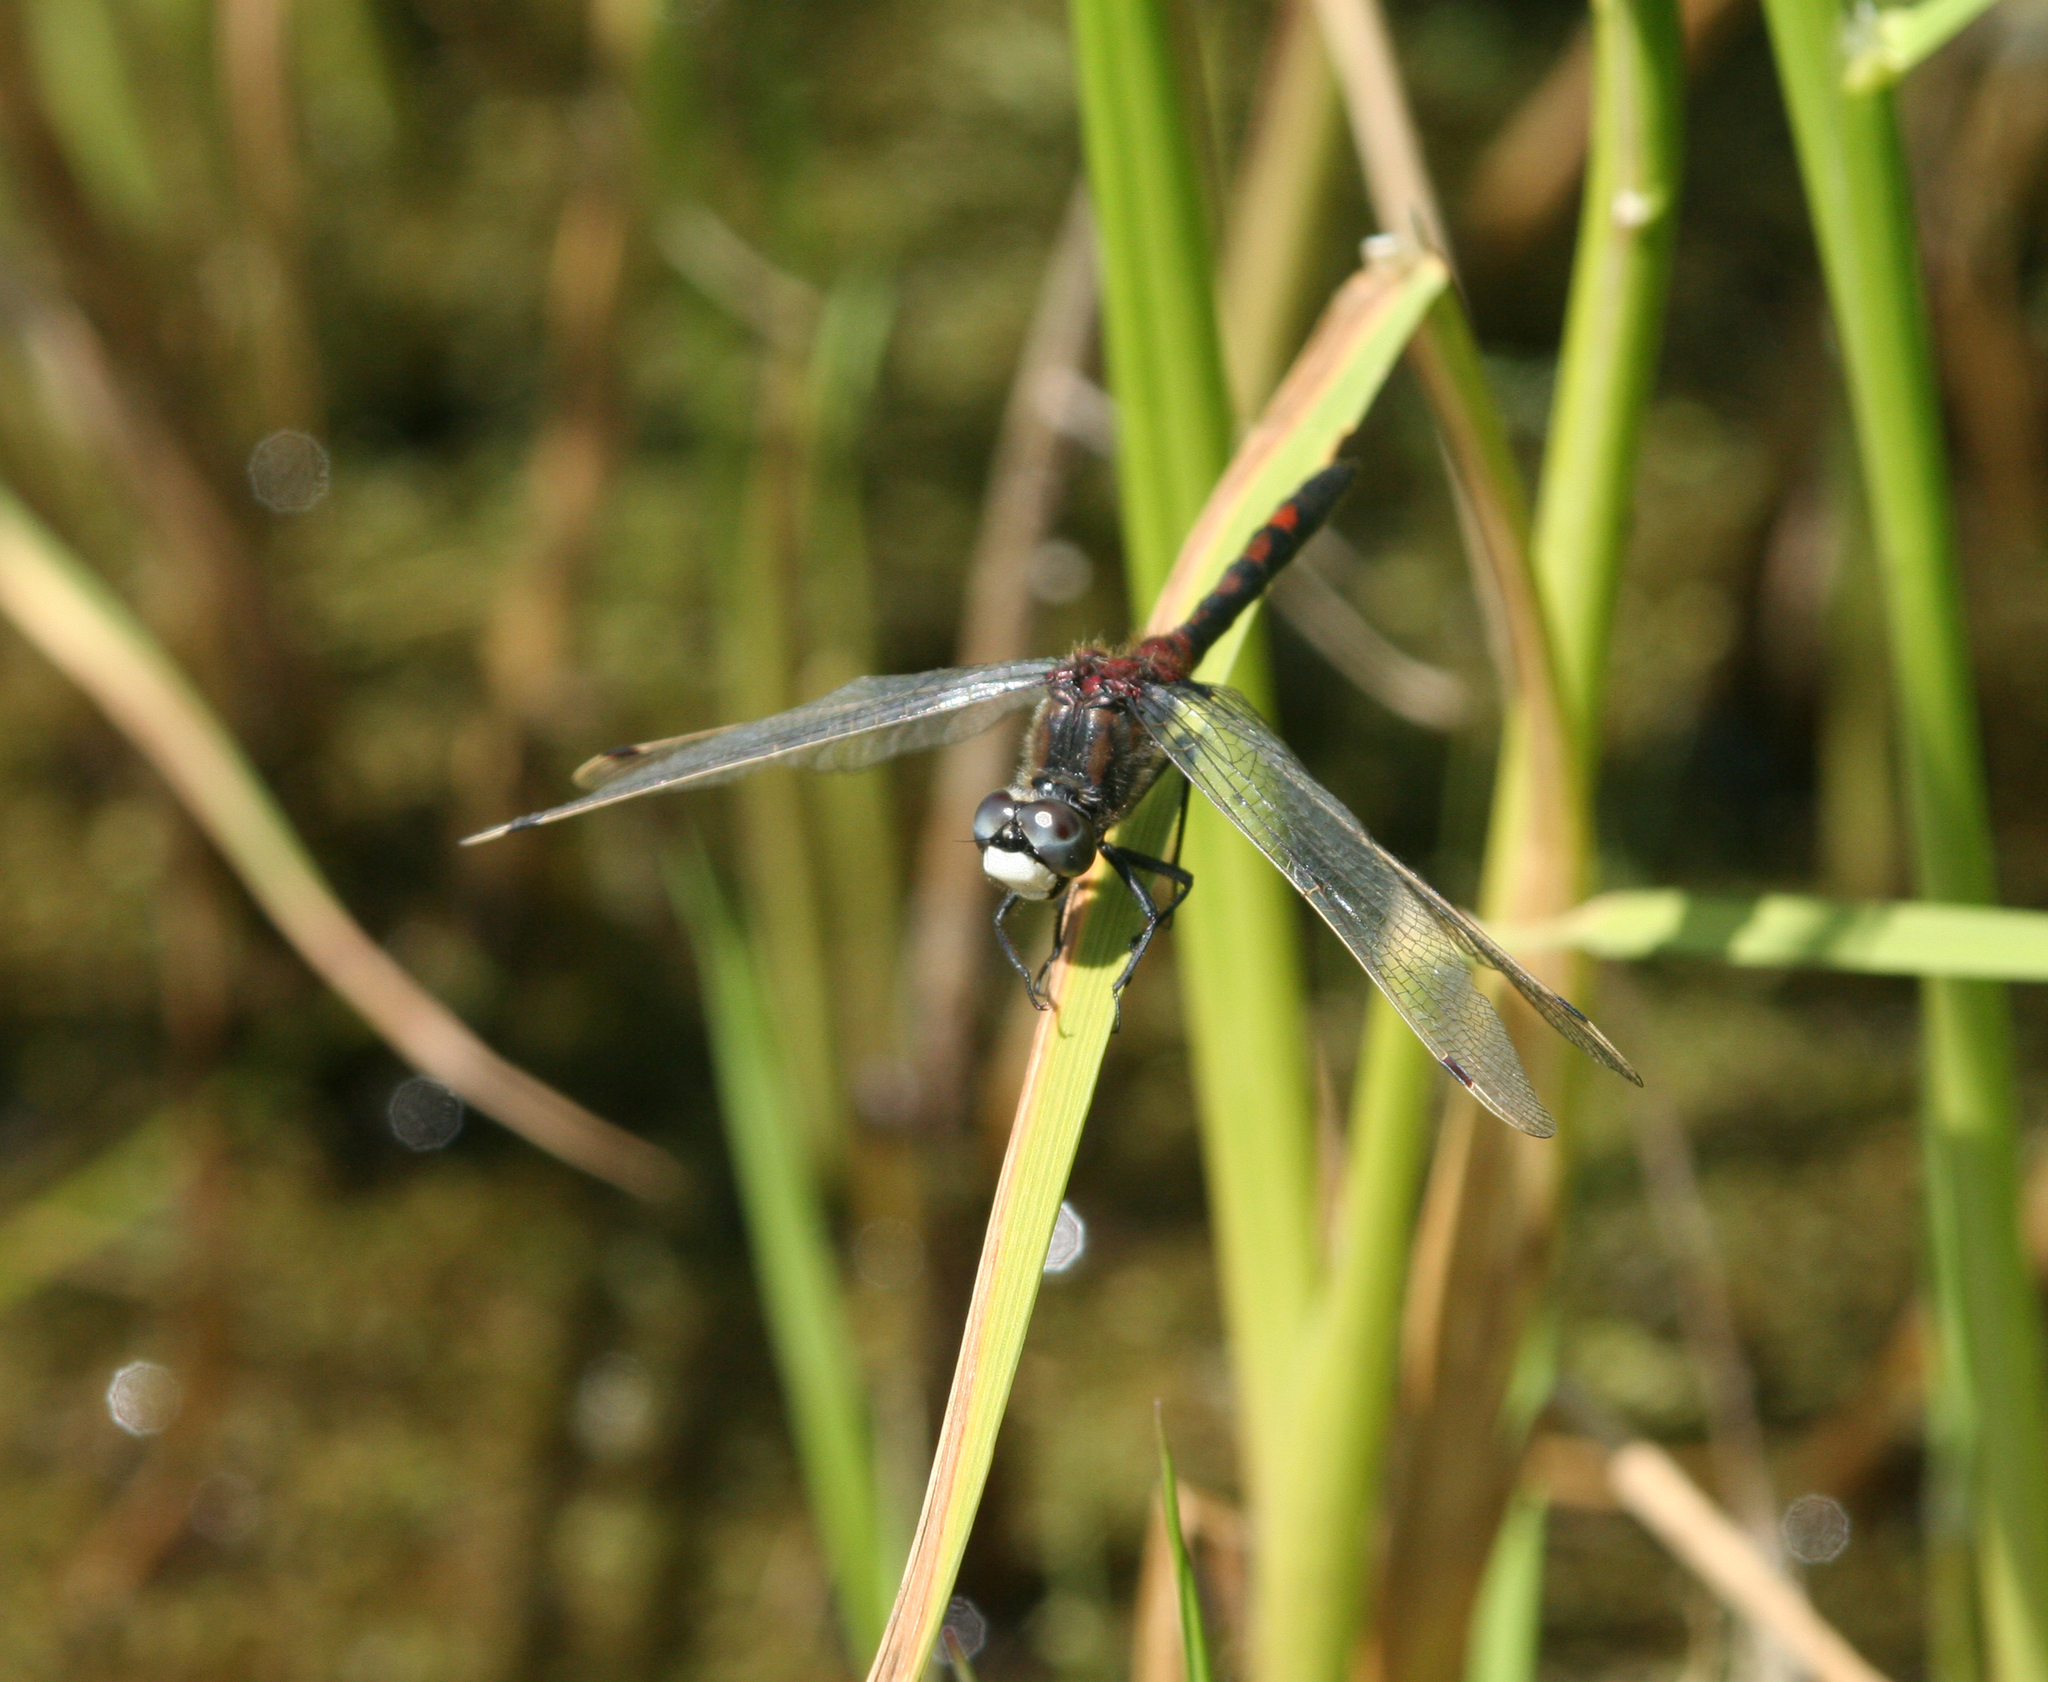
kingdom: Animalia
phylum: Arthropoda
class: Insecta
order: Odonata
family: Libellulidae
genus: Leucorrhinia
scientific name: Leucorrhinia rubicunda
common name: Ruby whiteface
